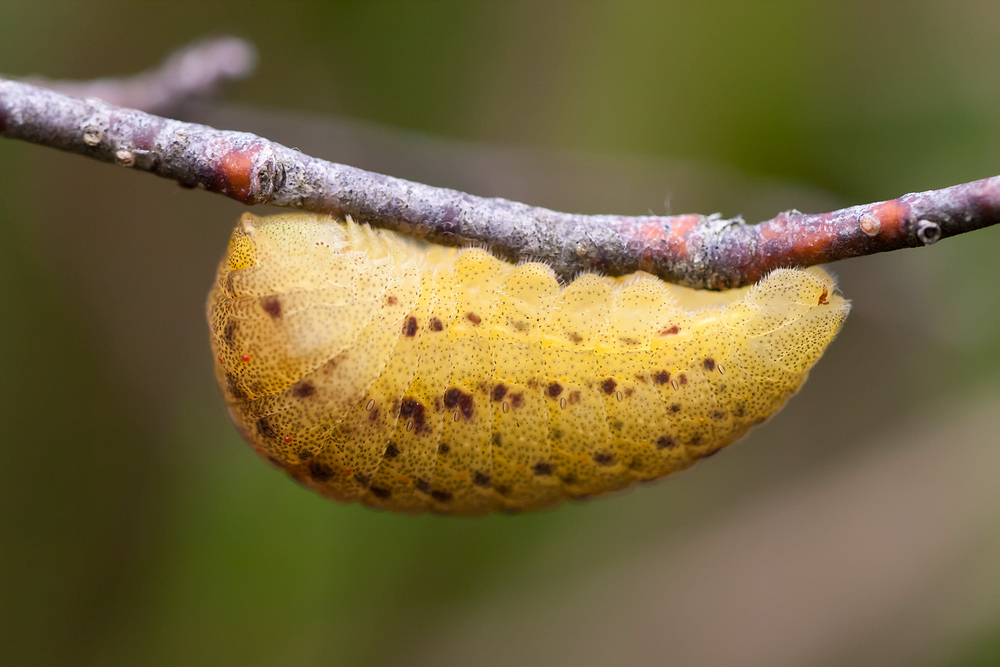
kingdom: Animalia
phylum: Arthropoda
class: Insecta
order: Lepidoptera
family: Papilionidae
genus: Iphiclides
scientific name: Iphiclides podalirius
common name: Scarce swallowtail
